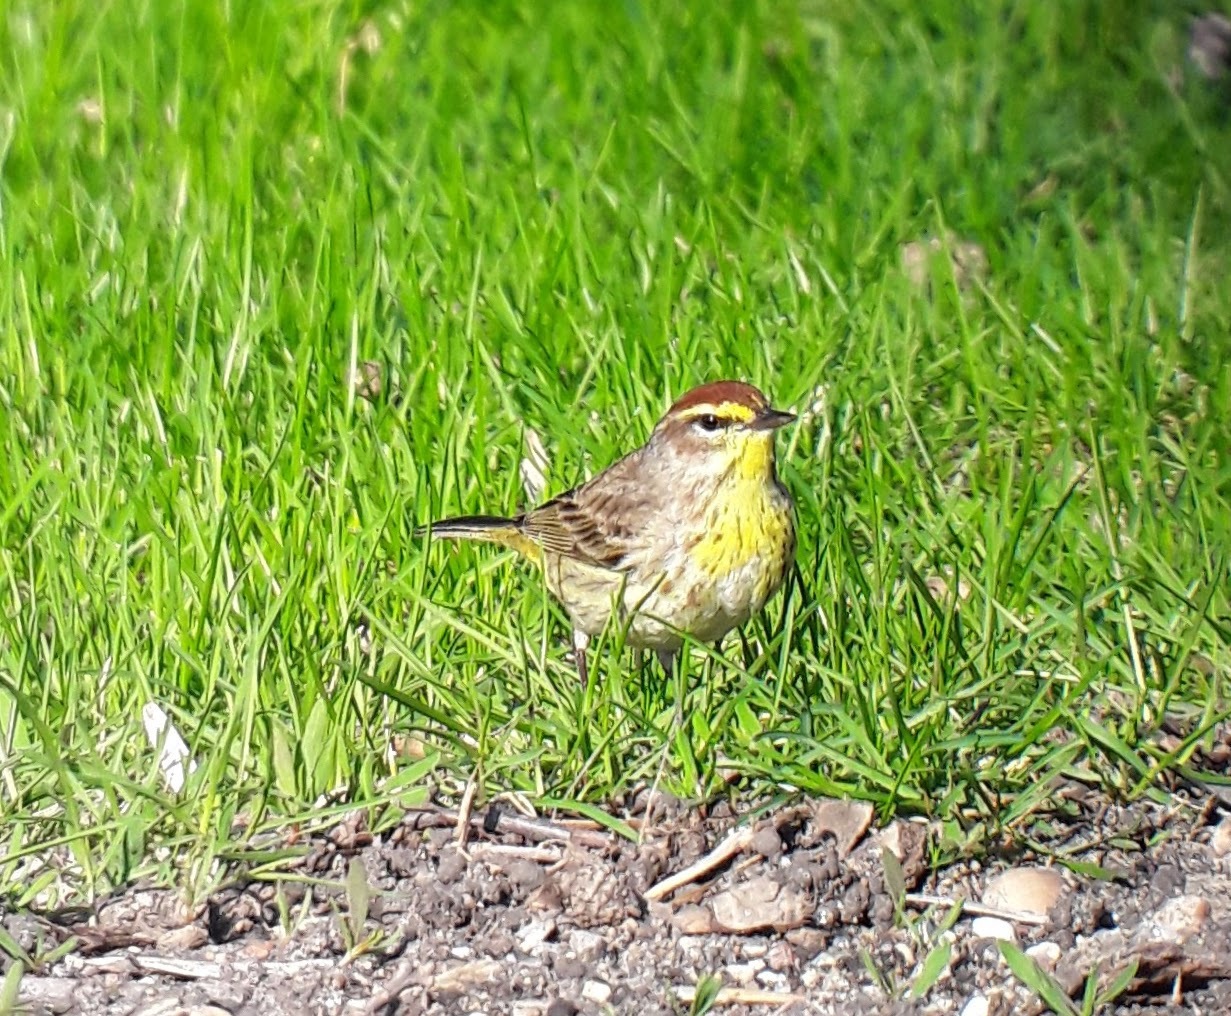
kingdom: Animalia
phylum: Chordata
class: Aves
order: Passeriformes
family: Parulidae
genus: Setophaga
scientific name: Setophaga palmarum
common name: Palm warbler
